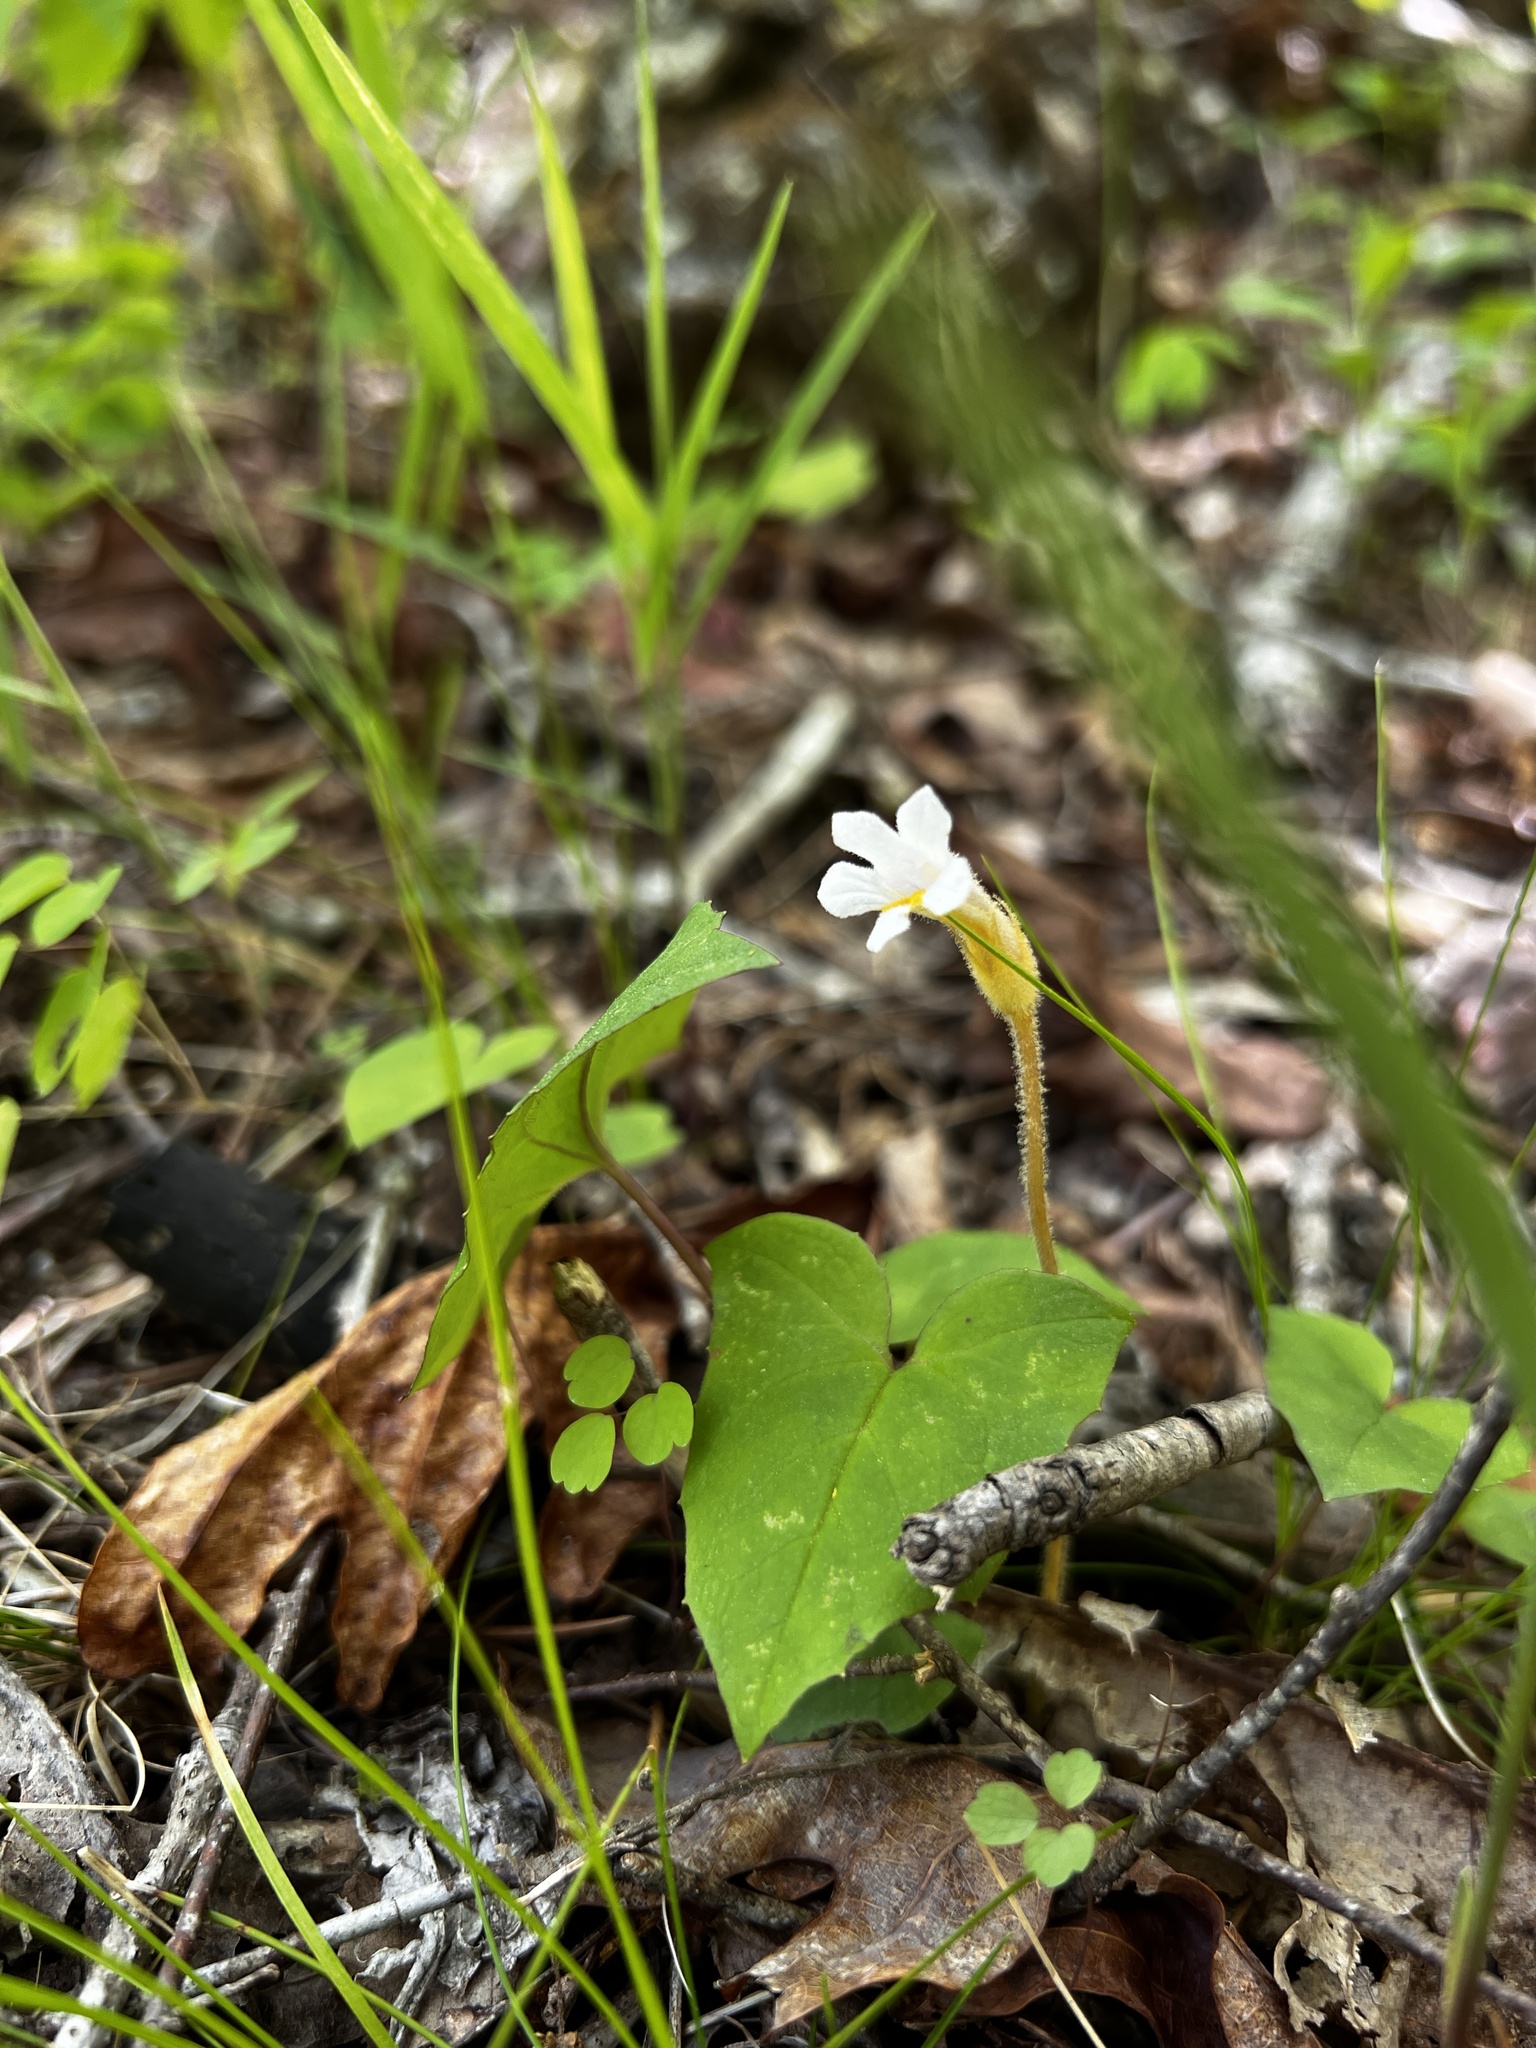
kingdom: Plantae
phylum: Tracheophyta
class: Magnoliopsida
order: Lamiales
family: Orobanchaceae
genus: Aphyllon
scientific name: Aphyllon uniflorum
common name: One-flowered broomrape
